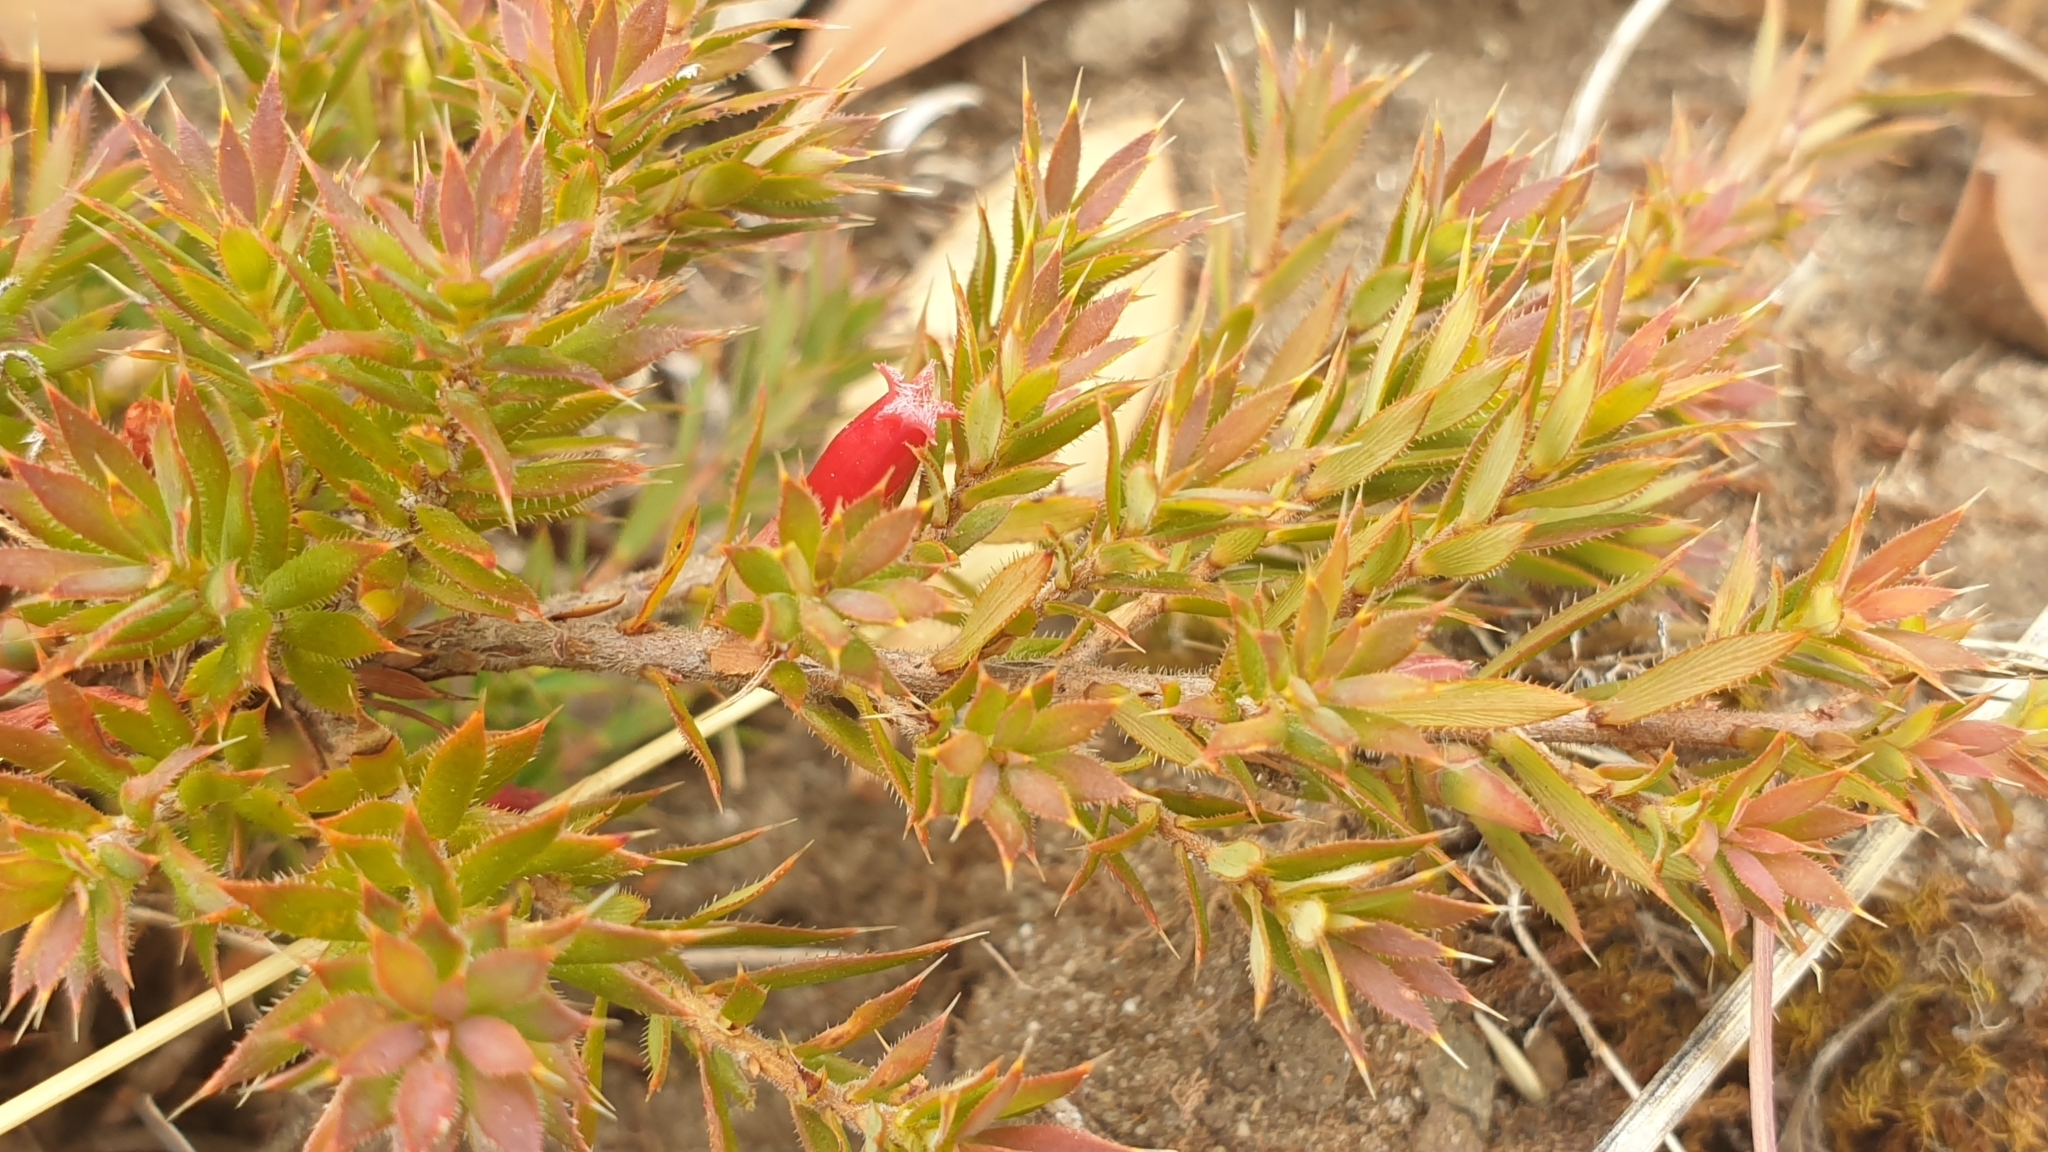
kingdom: Plantae
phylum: Tracheophyta
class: Magnoliopsida
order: Ericales
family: Ericaceae
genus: Styphelia
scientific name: Styphelia humifusa
